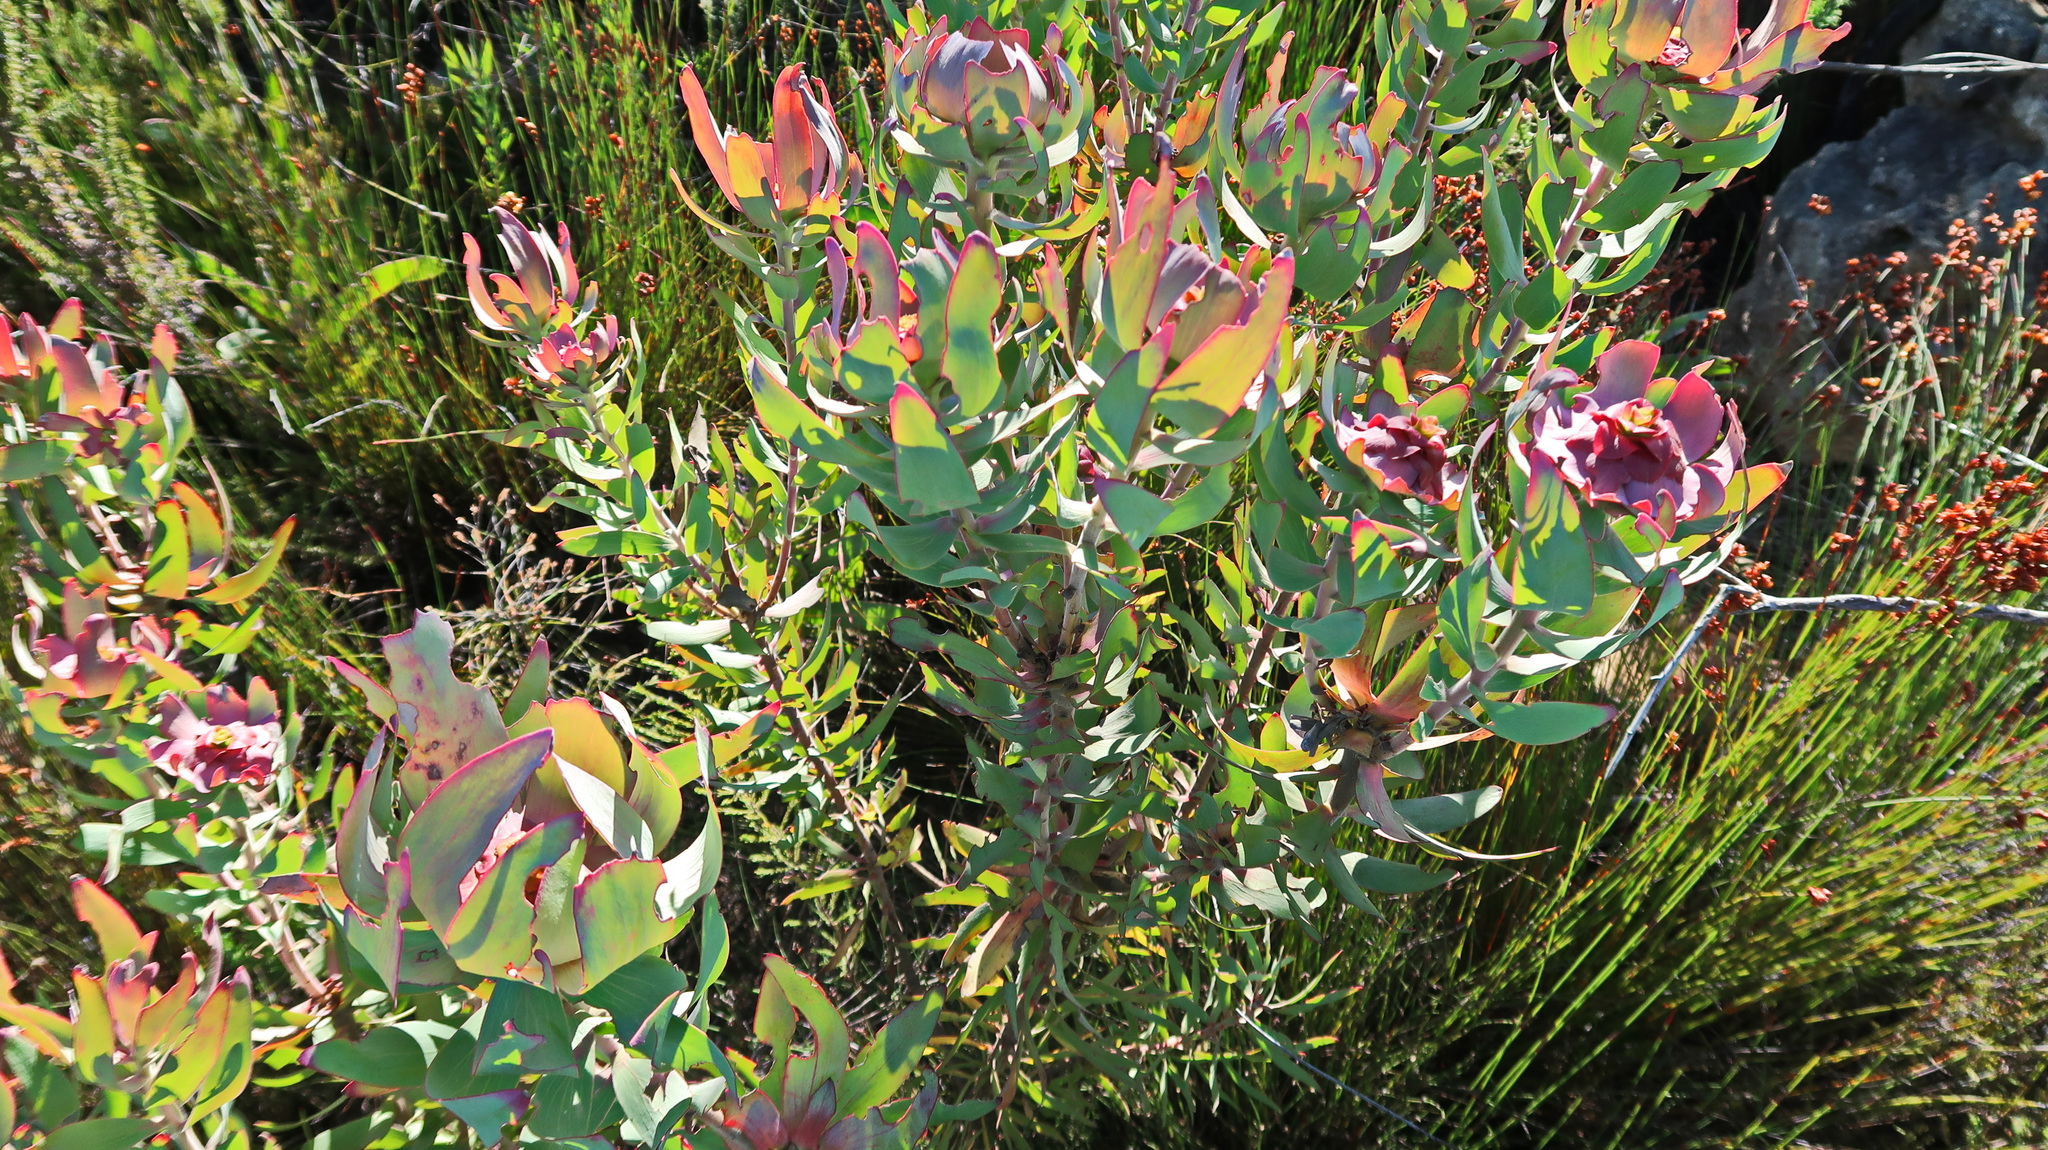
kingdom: Plantae
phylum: Tracheophyta
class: Magnoliopsida
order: Proteales
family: Proteaceae
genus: Leucadendron
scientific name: Leucadendron tinctum
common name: Spicy conebush
